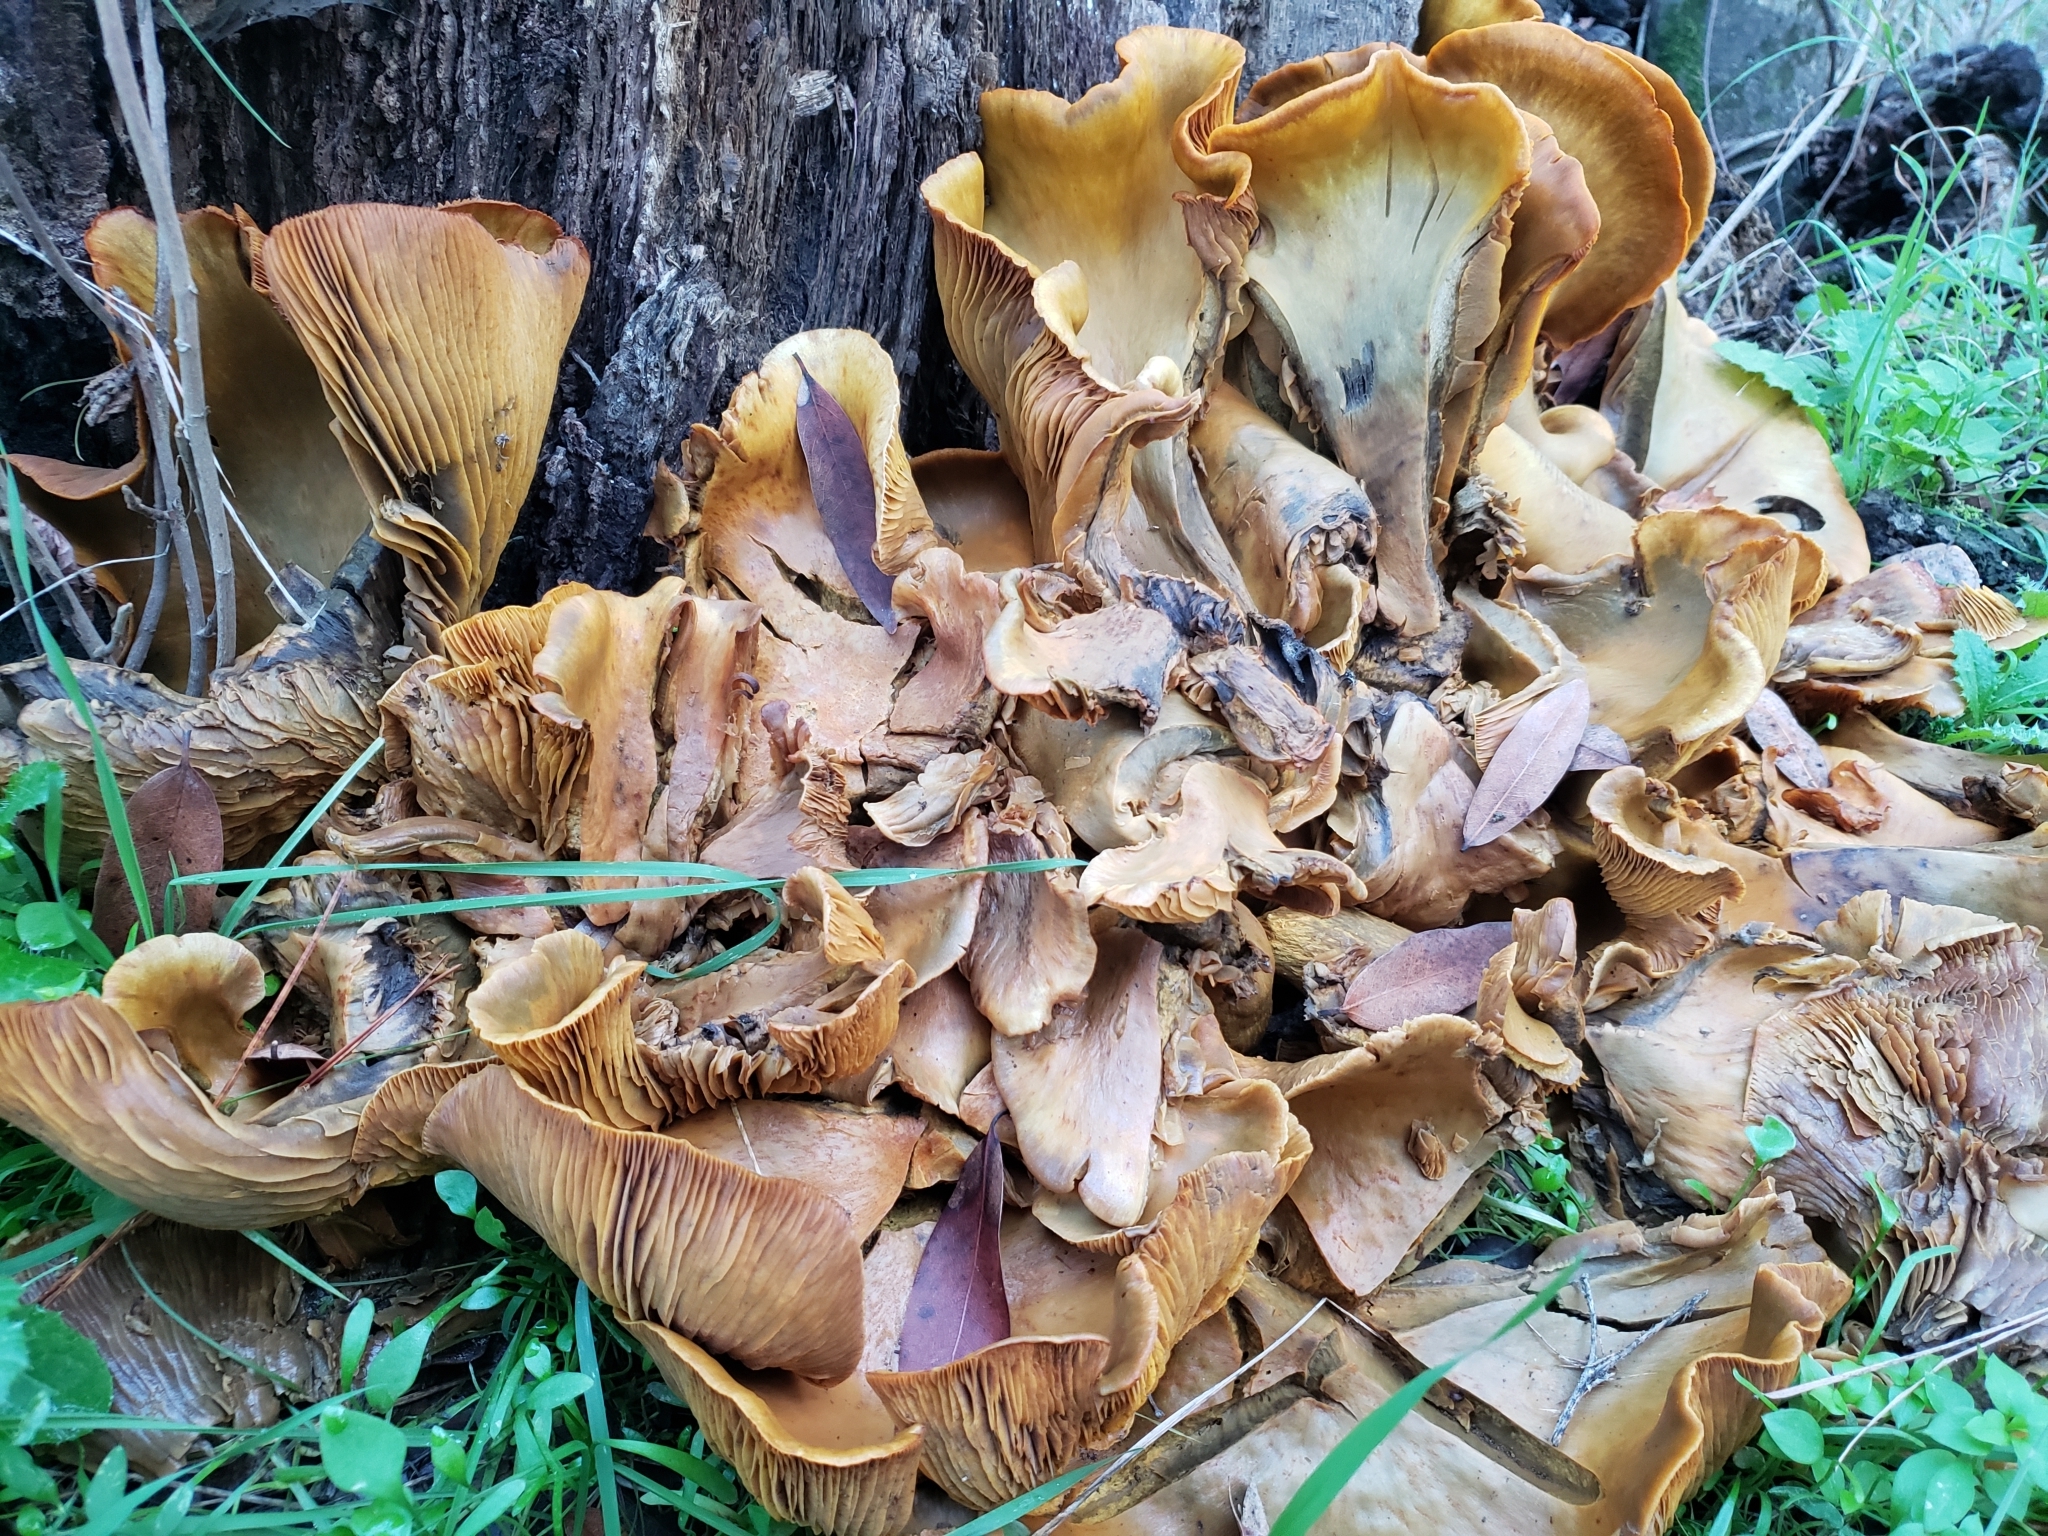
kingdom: Fungi
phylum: Basidiomycota
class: Agaricomycetes
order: Agaricales
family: Omphalotaceae
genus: Omphalotus
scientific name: Omphalotus olivascens
